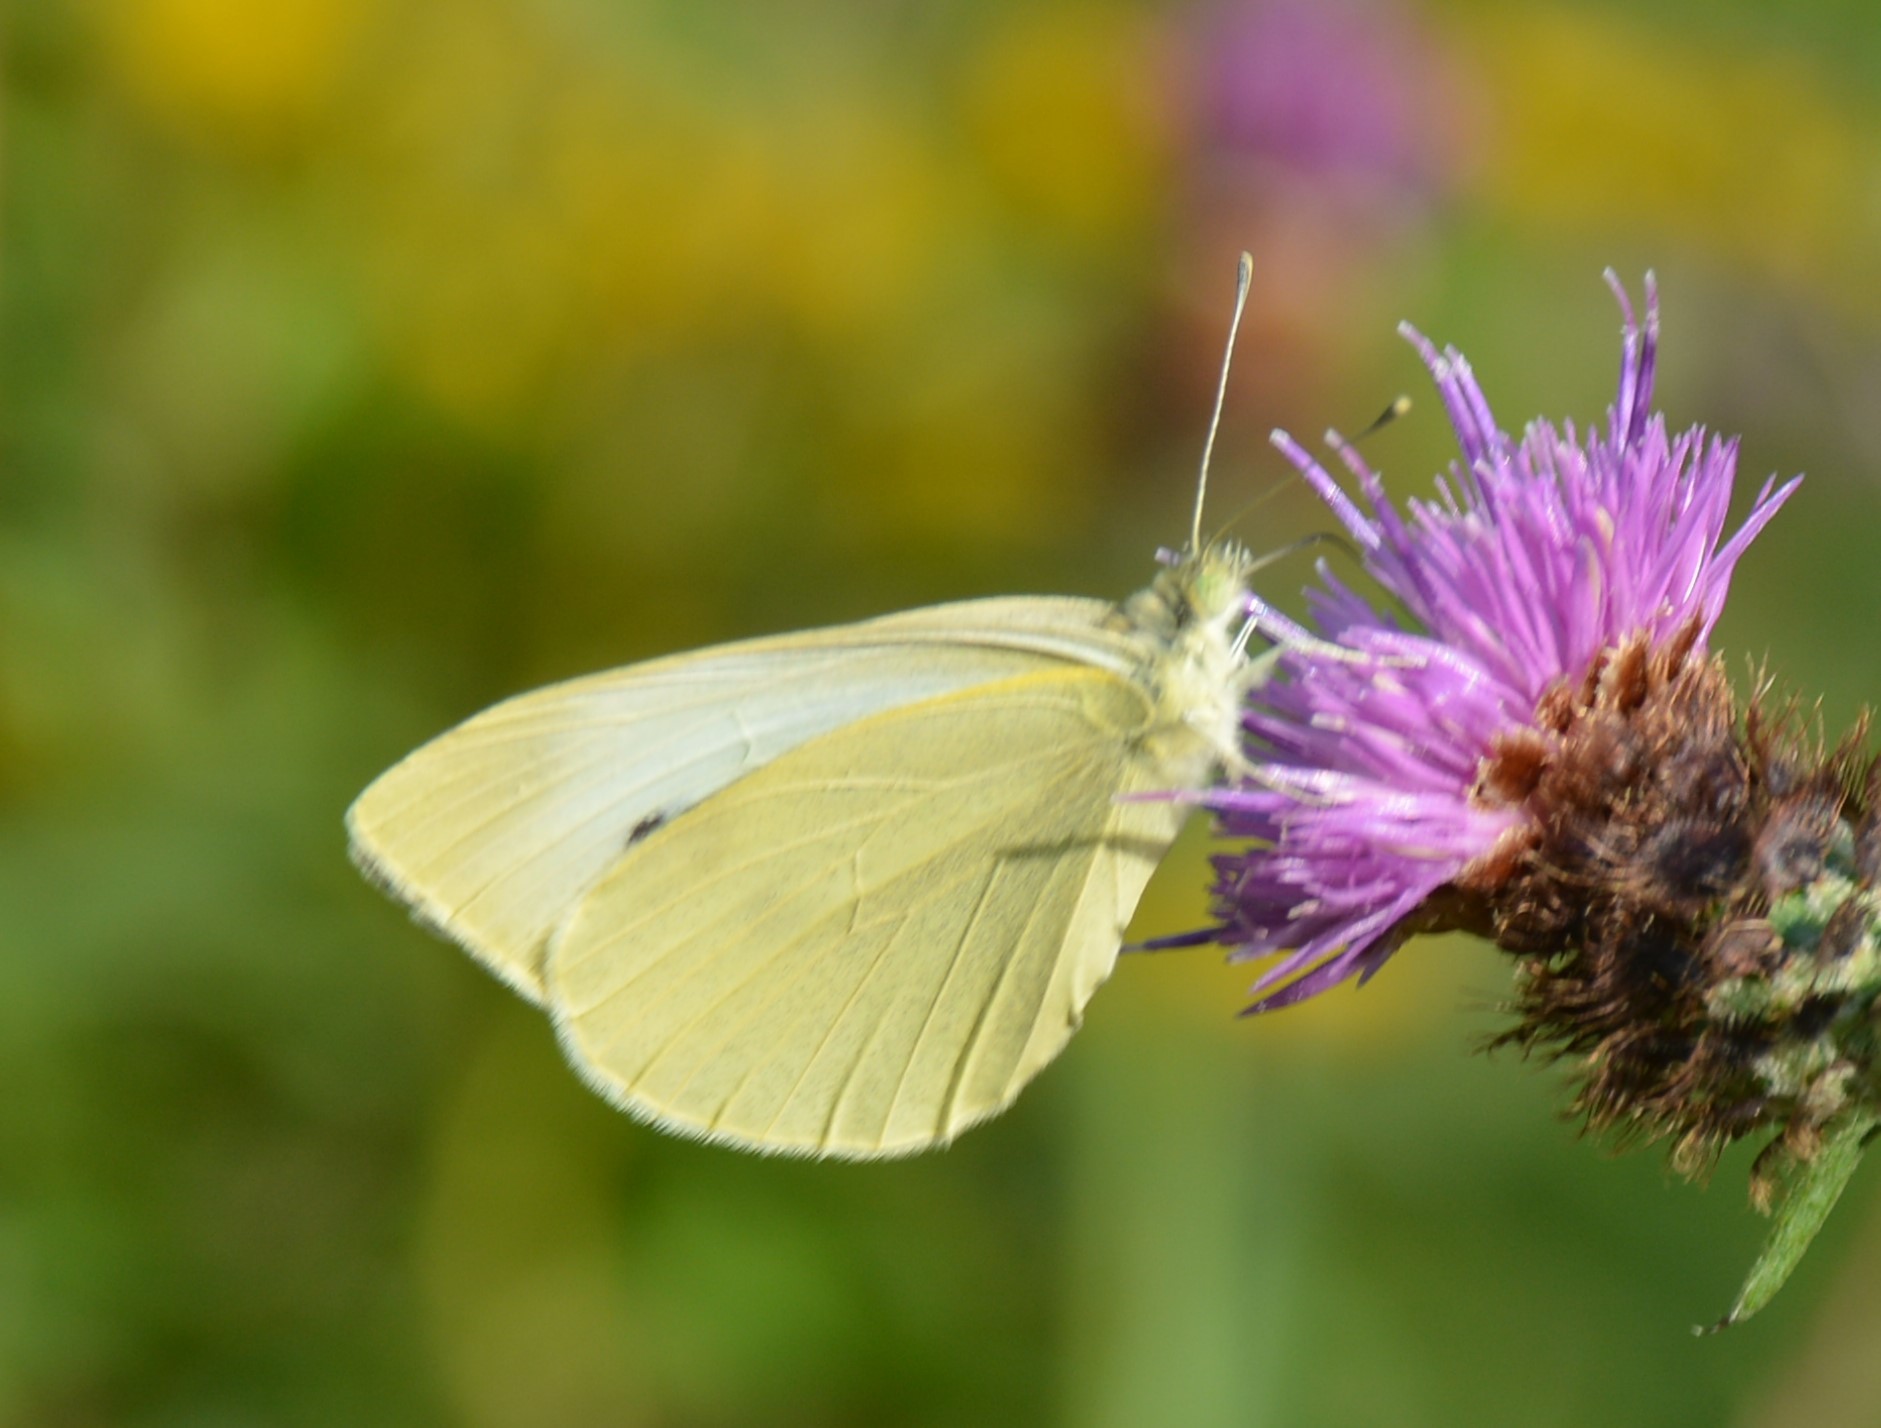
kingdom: Animalia
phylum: Arthropoda
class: Insecta
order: Lepidoptera
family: Pieridae
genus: Pieris
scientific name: Pieris rapae
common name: Small white
